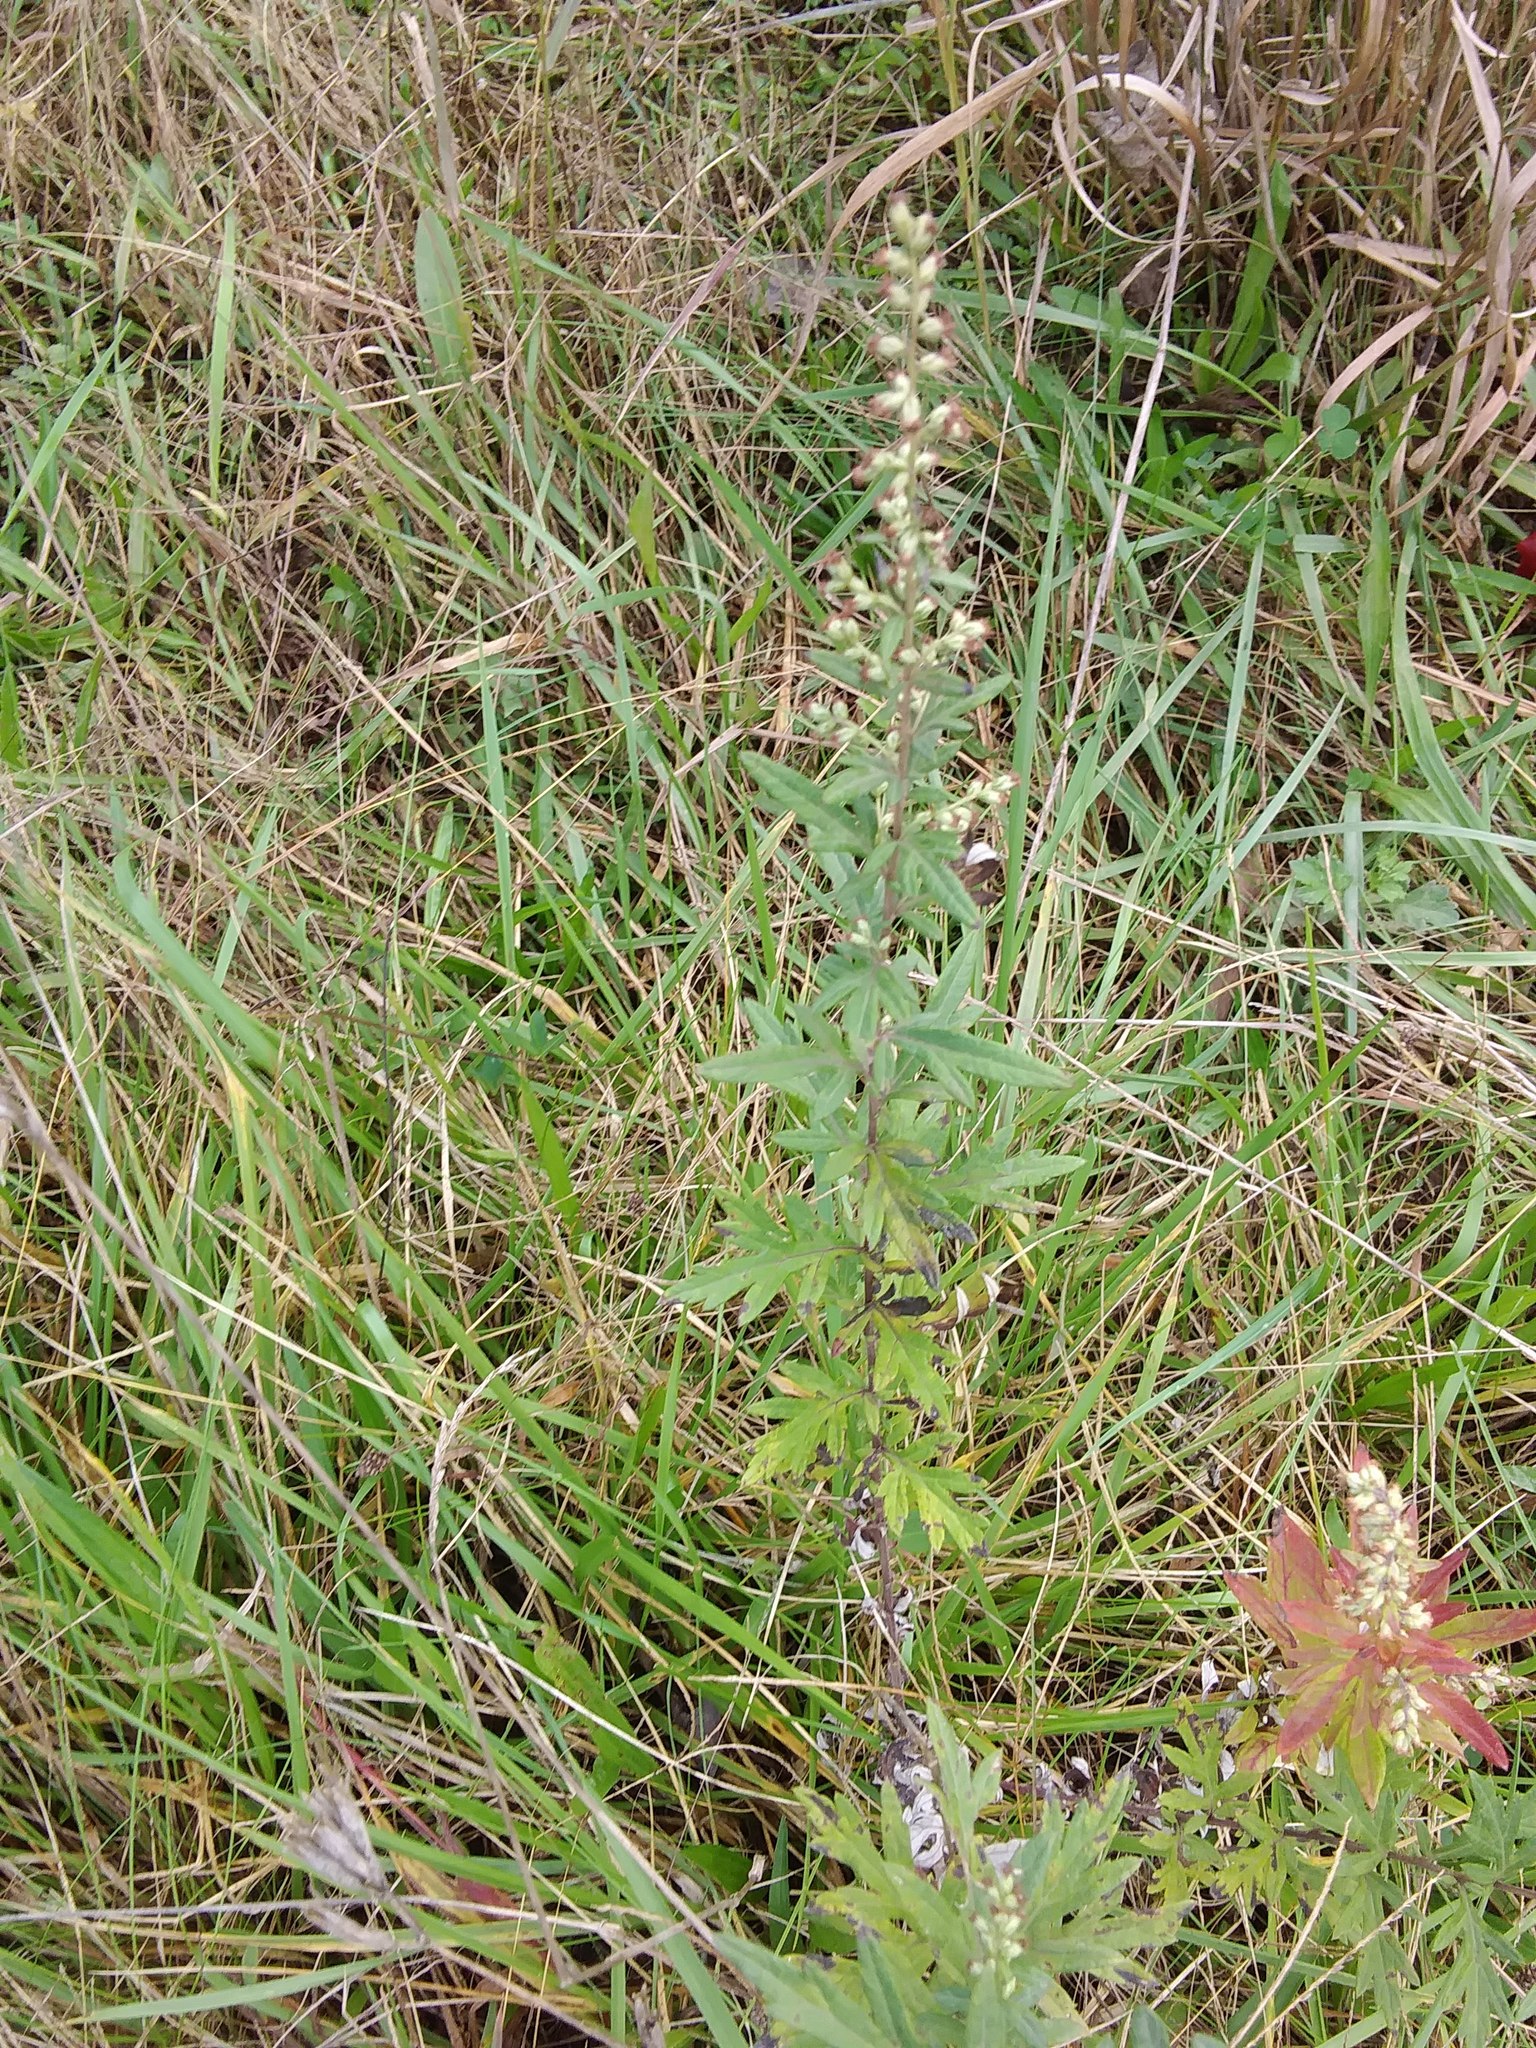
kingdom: Plantae
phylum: Tracheophyta
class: Magnoliopsida
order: Asterales
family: Asteraceae
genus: Artemisia
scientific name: Artemisia vulgaris
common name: Mugwort
